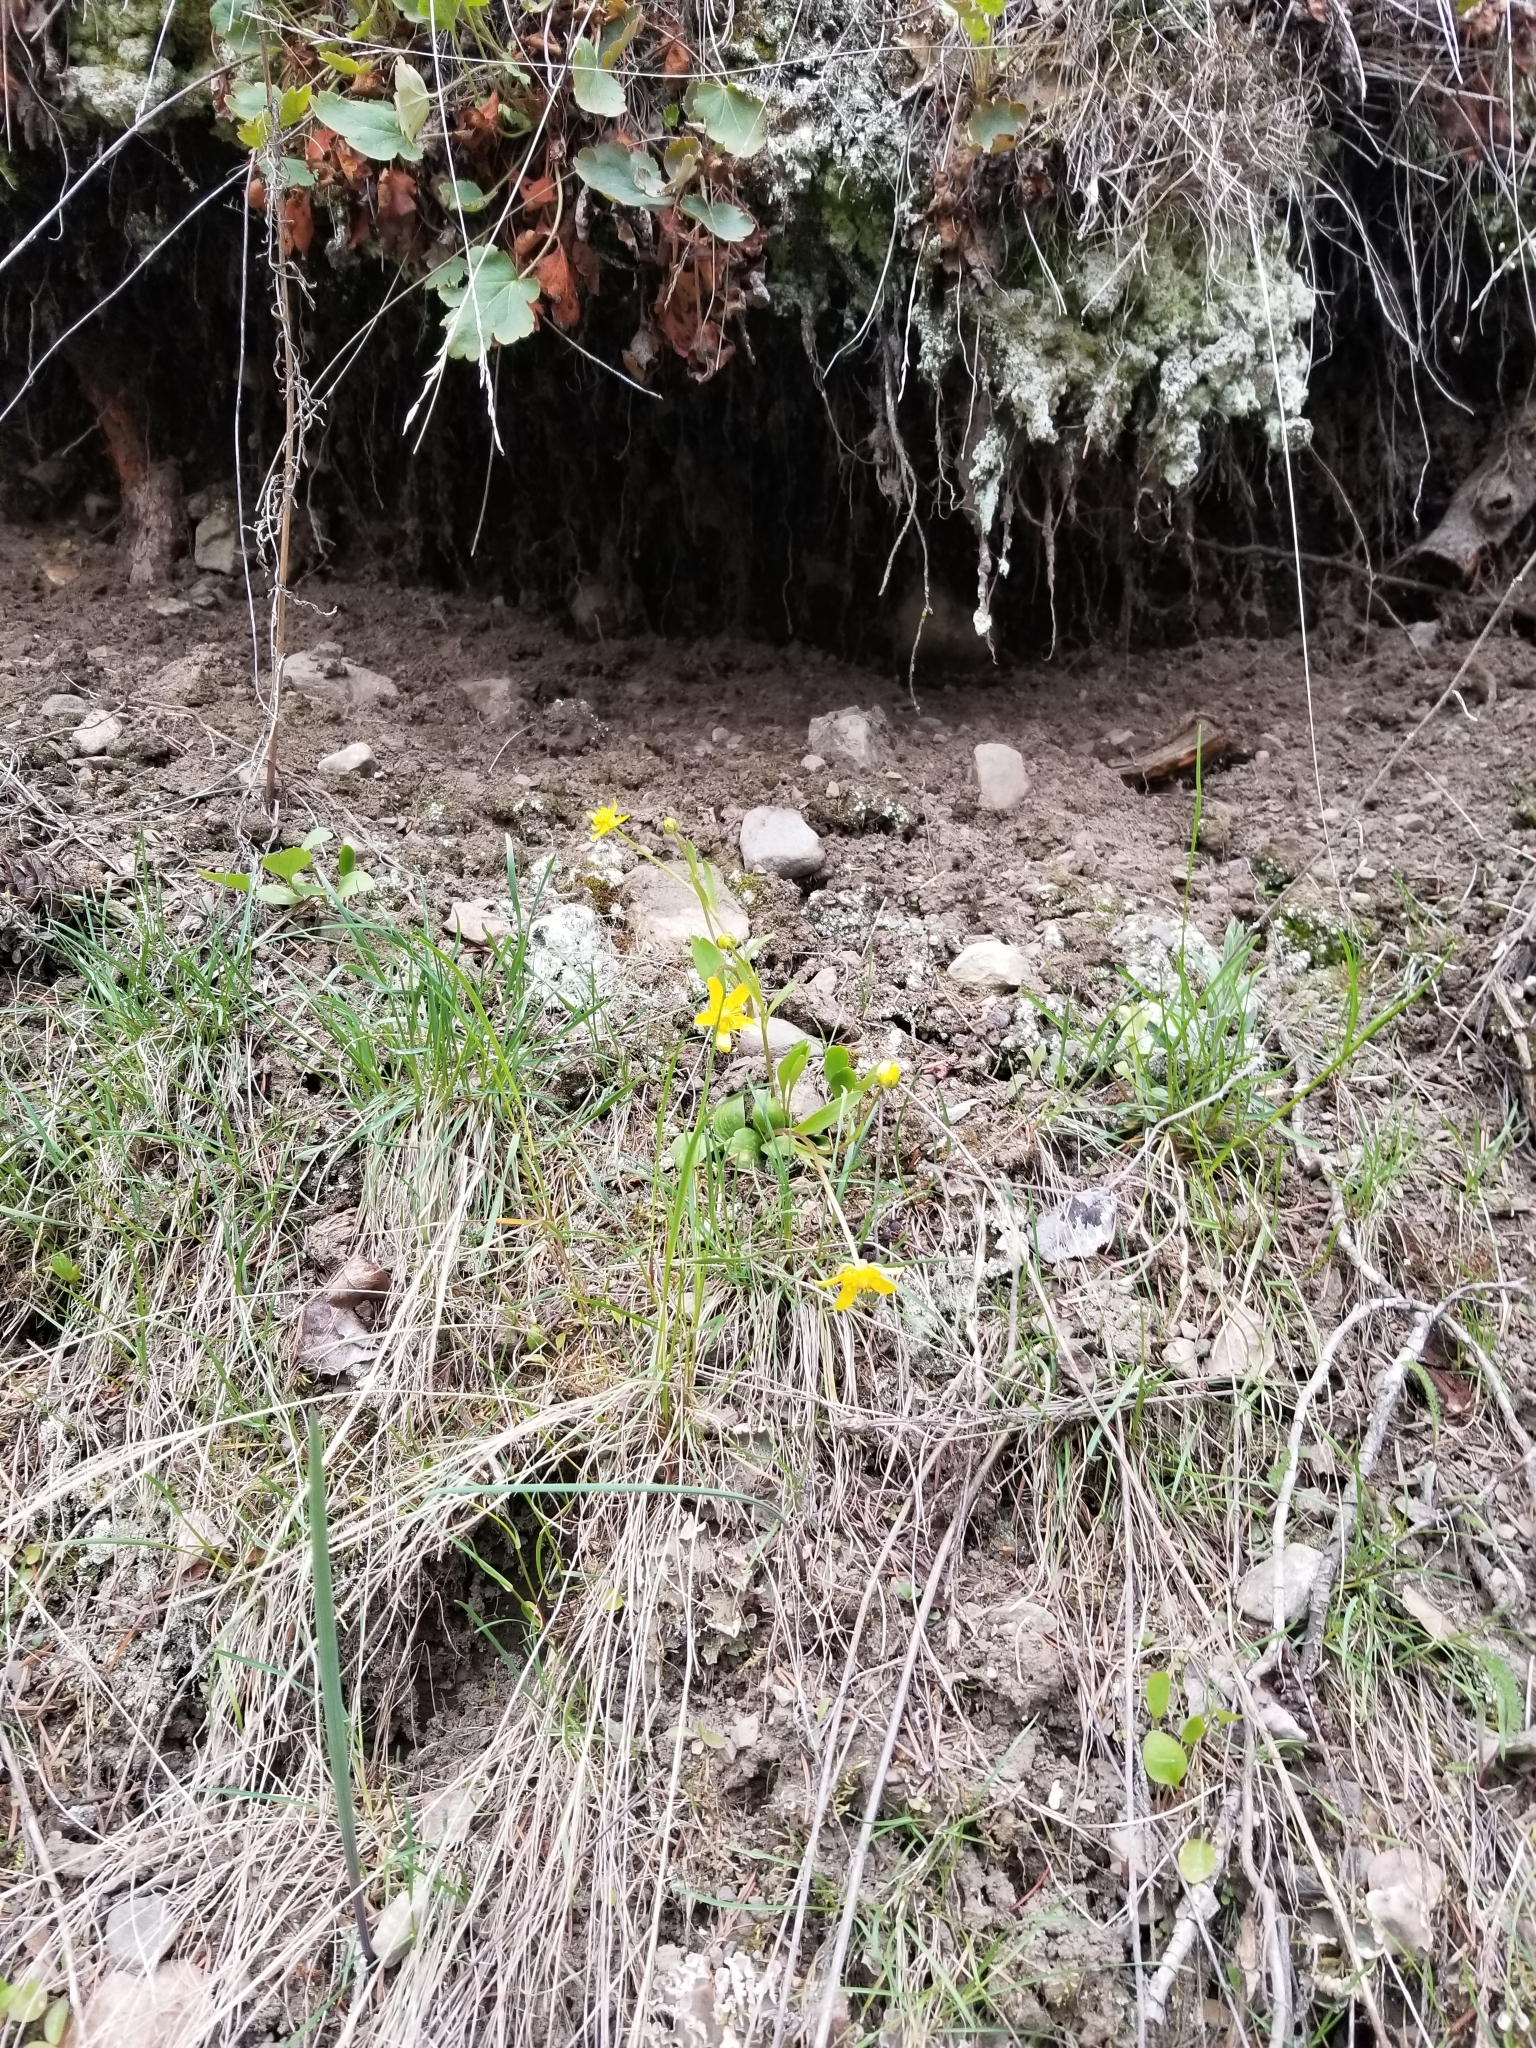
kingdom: Plantae
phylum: Tracheophyta
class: Magnoliopsida
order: Ranunculales
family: Ranunculaceae
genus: Ranunculus
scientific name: Ranunculus glaberrimus
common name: Sagebrush buttercup
